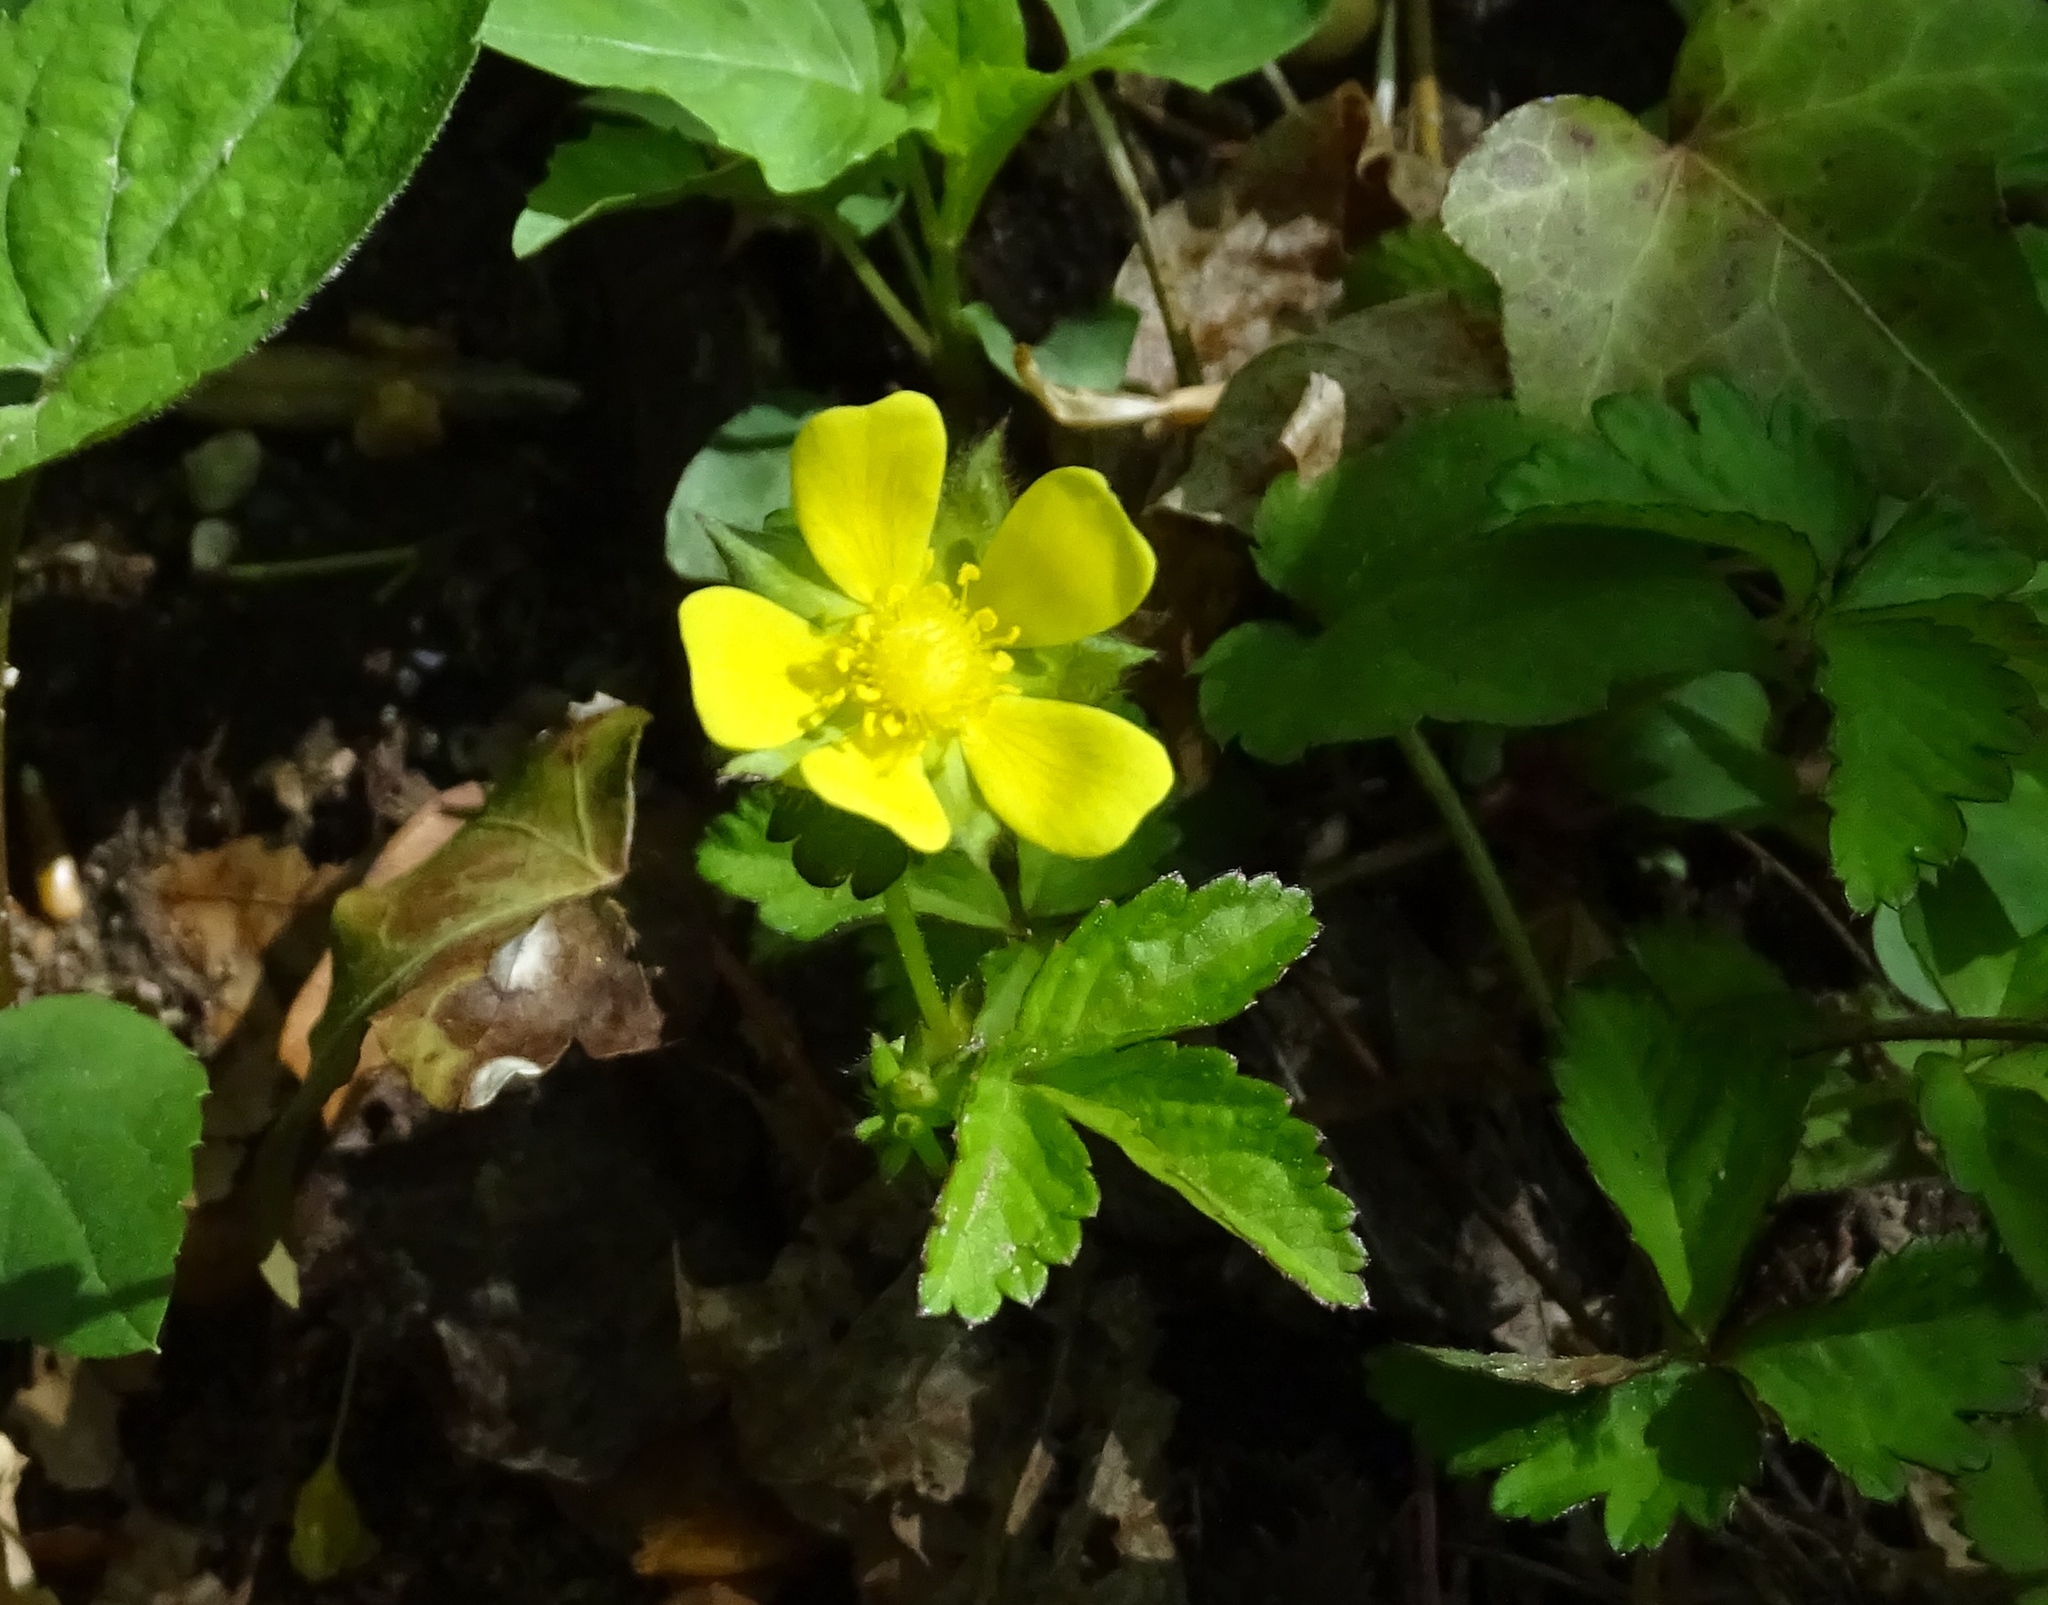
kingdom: Plantae
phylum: Tracheophyta
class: Magnoliopsida
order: Rosales
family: Rosaceae
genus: Potentilla
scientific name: Potentilla indica
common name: Yellow-flowered strawberry
